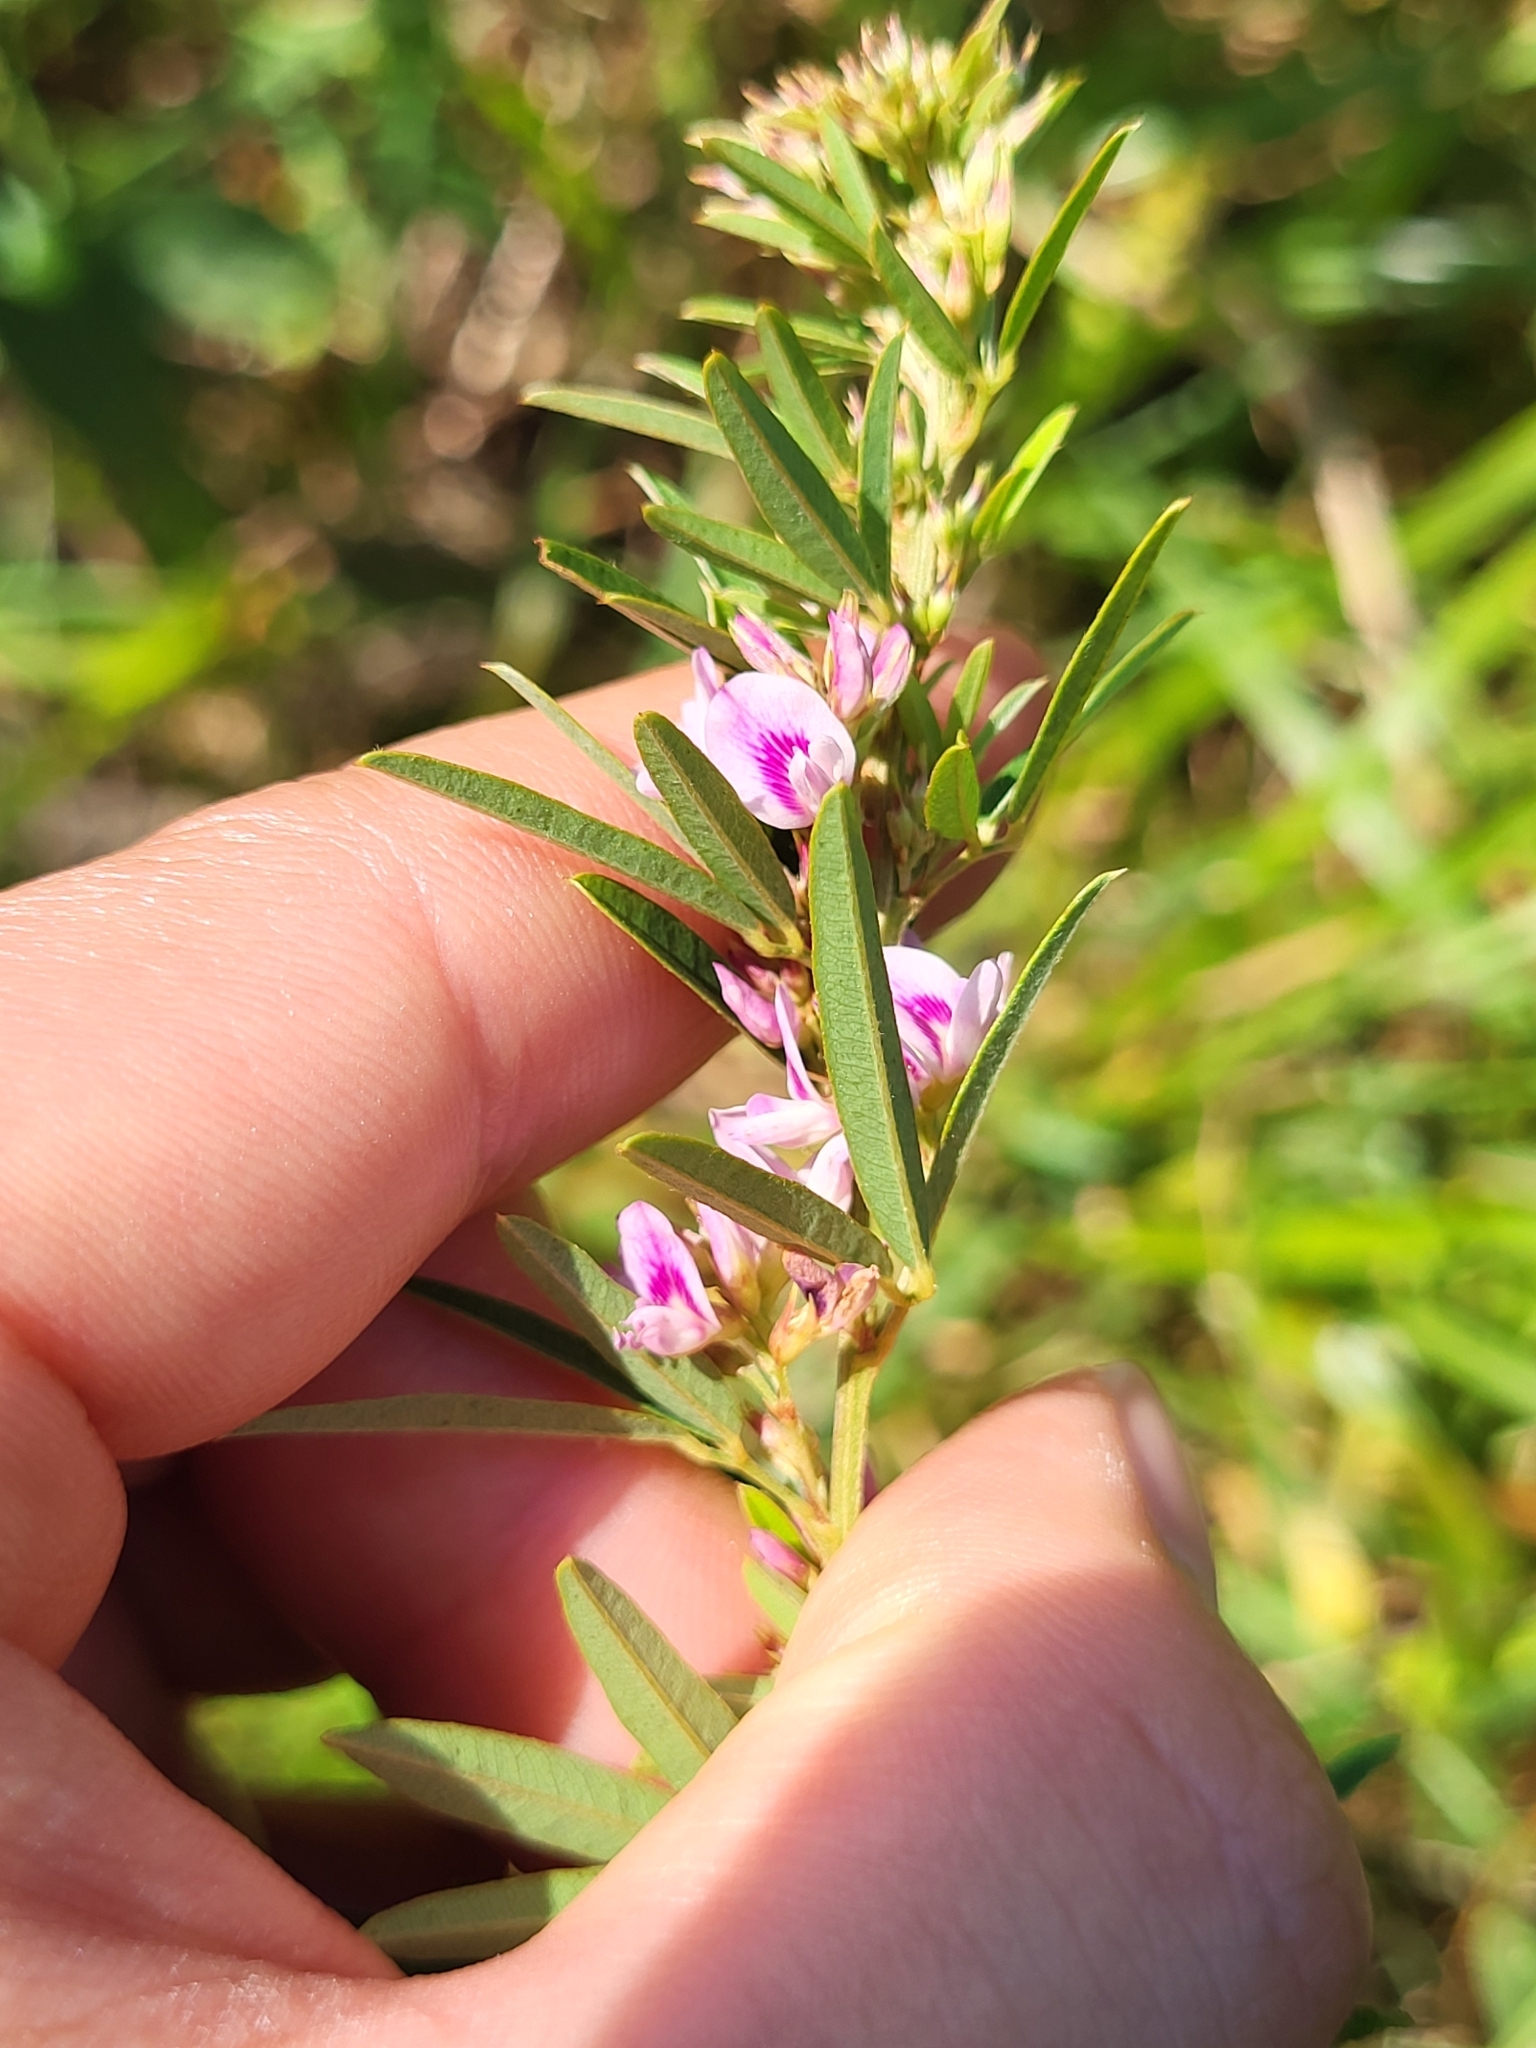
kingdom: Plantae
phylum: Tracheophyta
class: Magnoliopsida
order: Fabales
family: Fabaceae
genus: Lespedeza
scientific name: Lespedeza virginica
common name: Slender bush-clover
